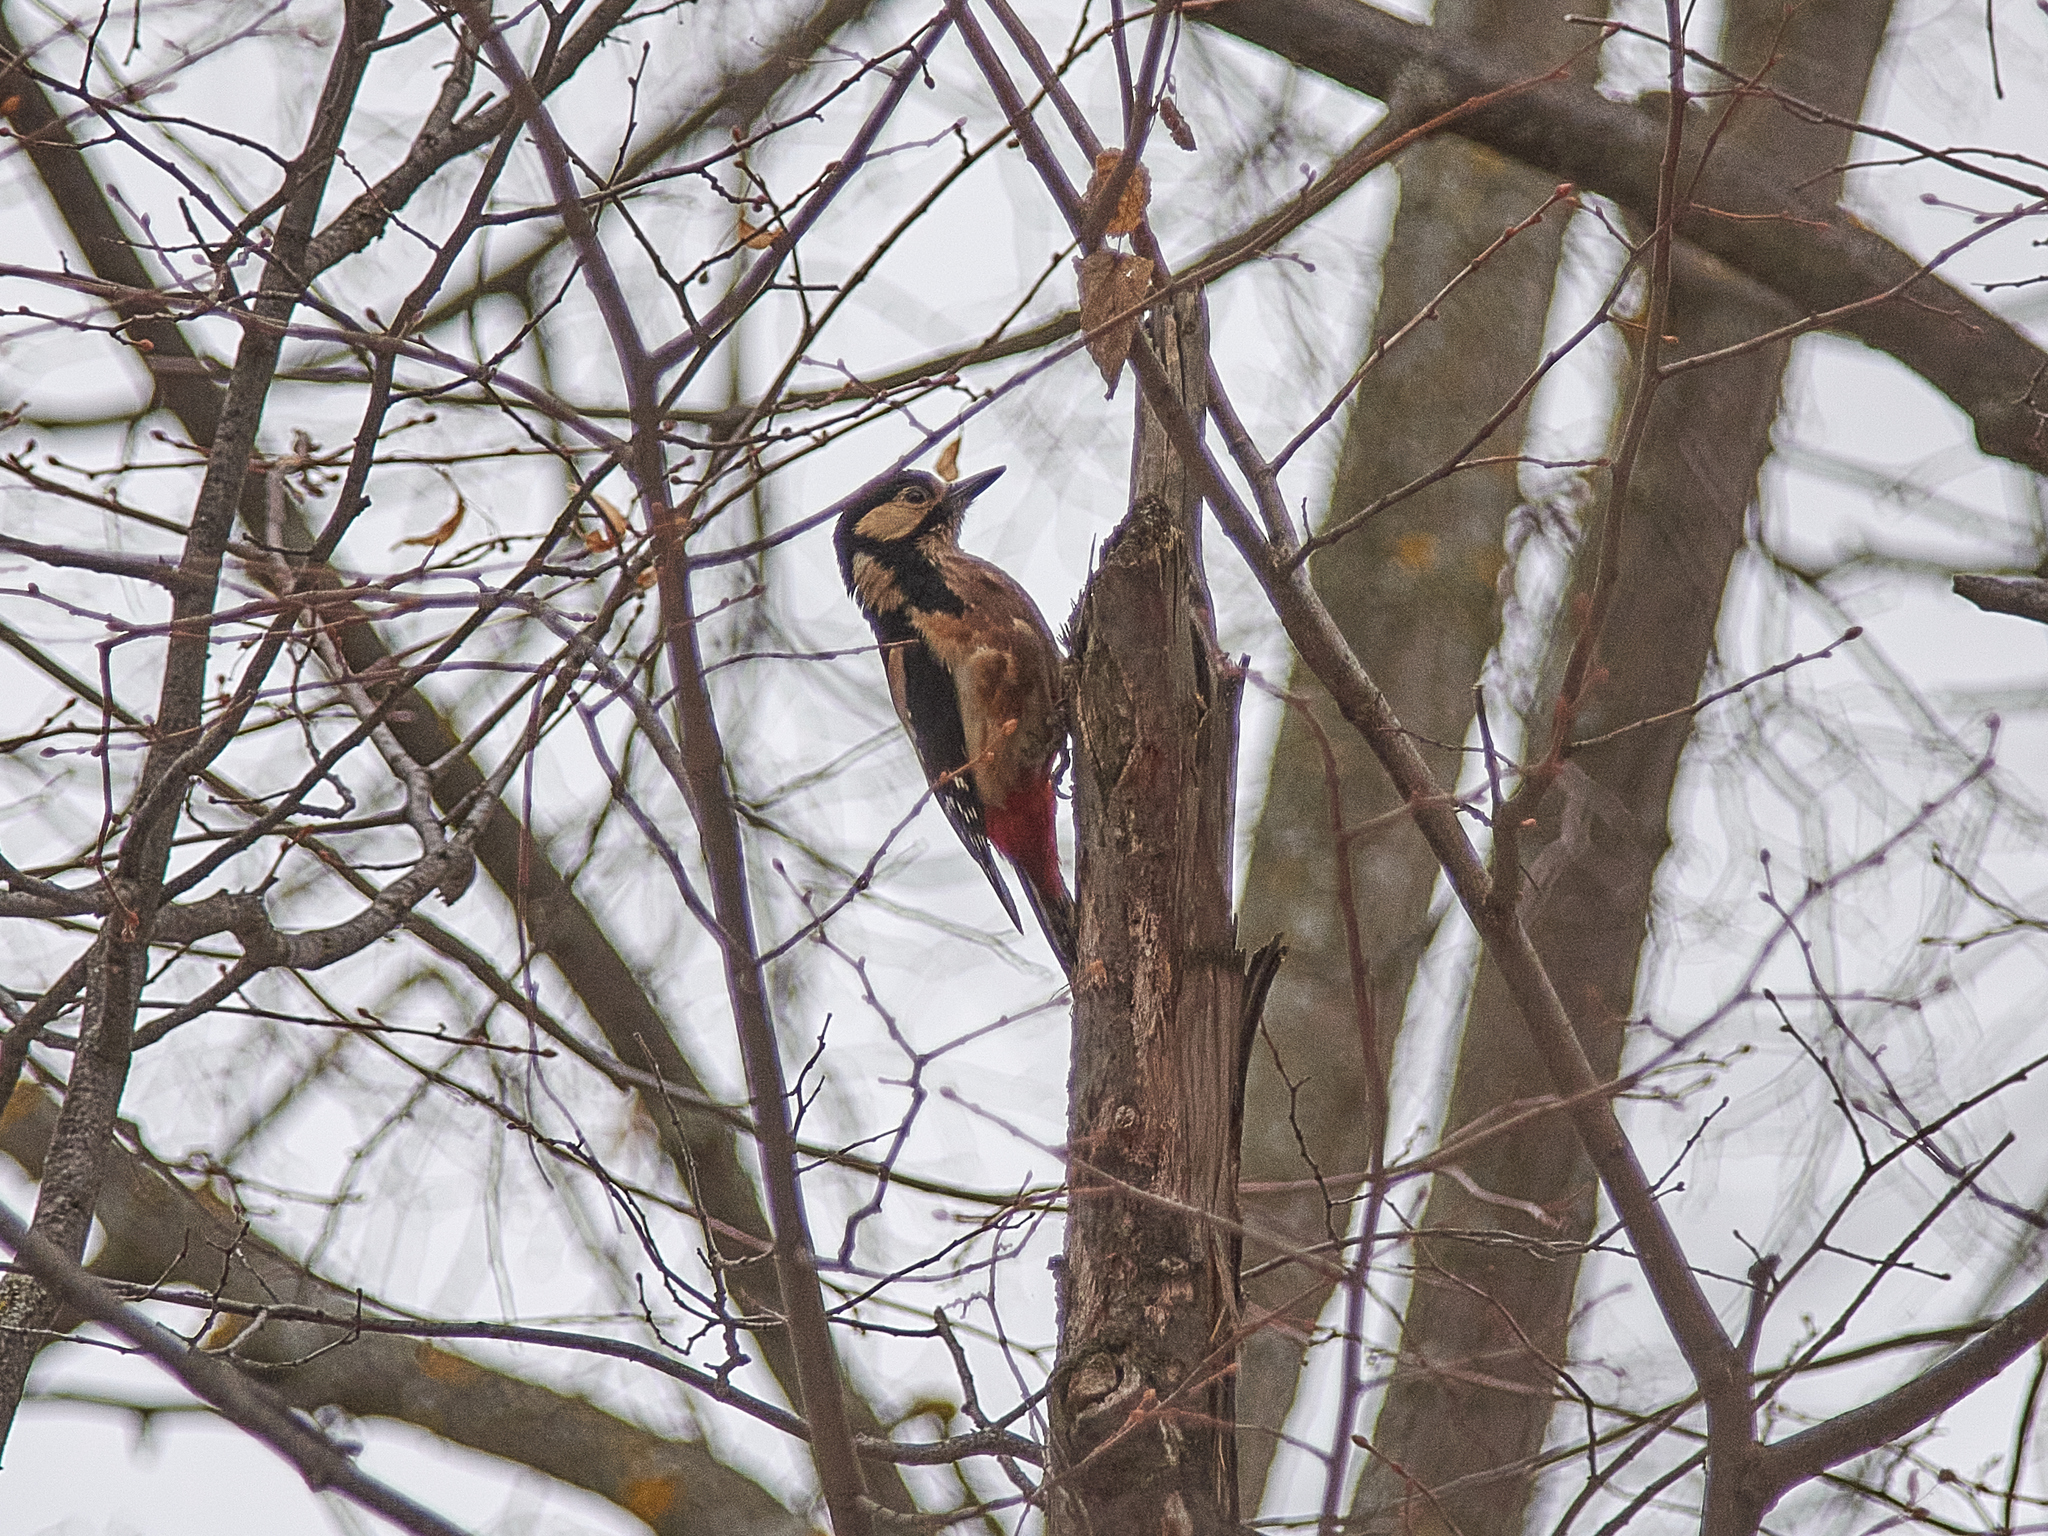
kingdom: Animalia
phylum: Chordata
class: Aves
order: Piciformes
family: Picidae
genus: Dendrocopos
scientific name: Dendrocopos major
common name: Great spotted woodpecker
